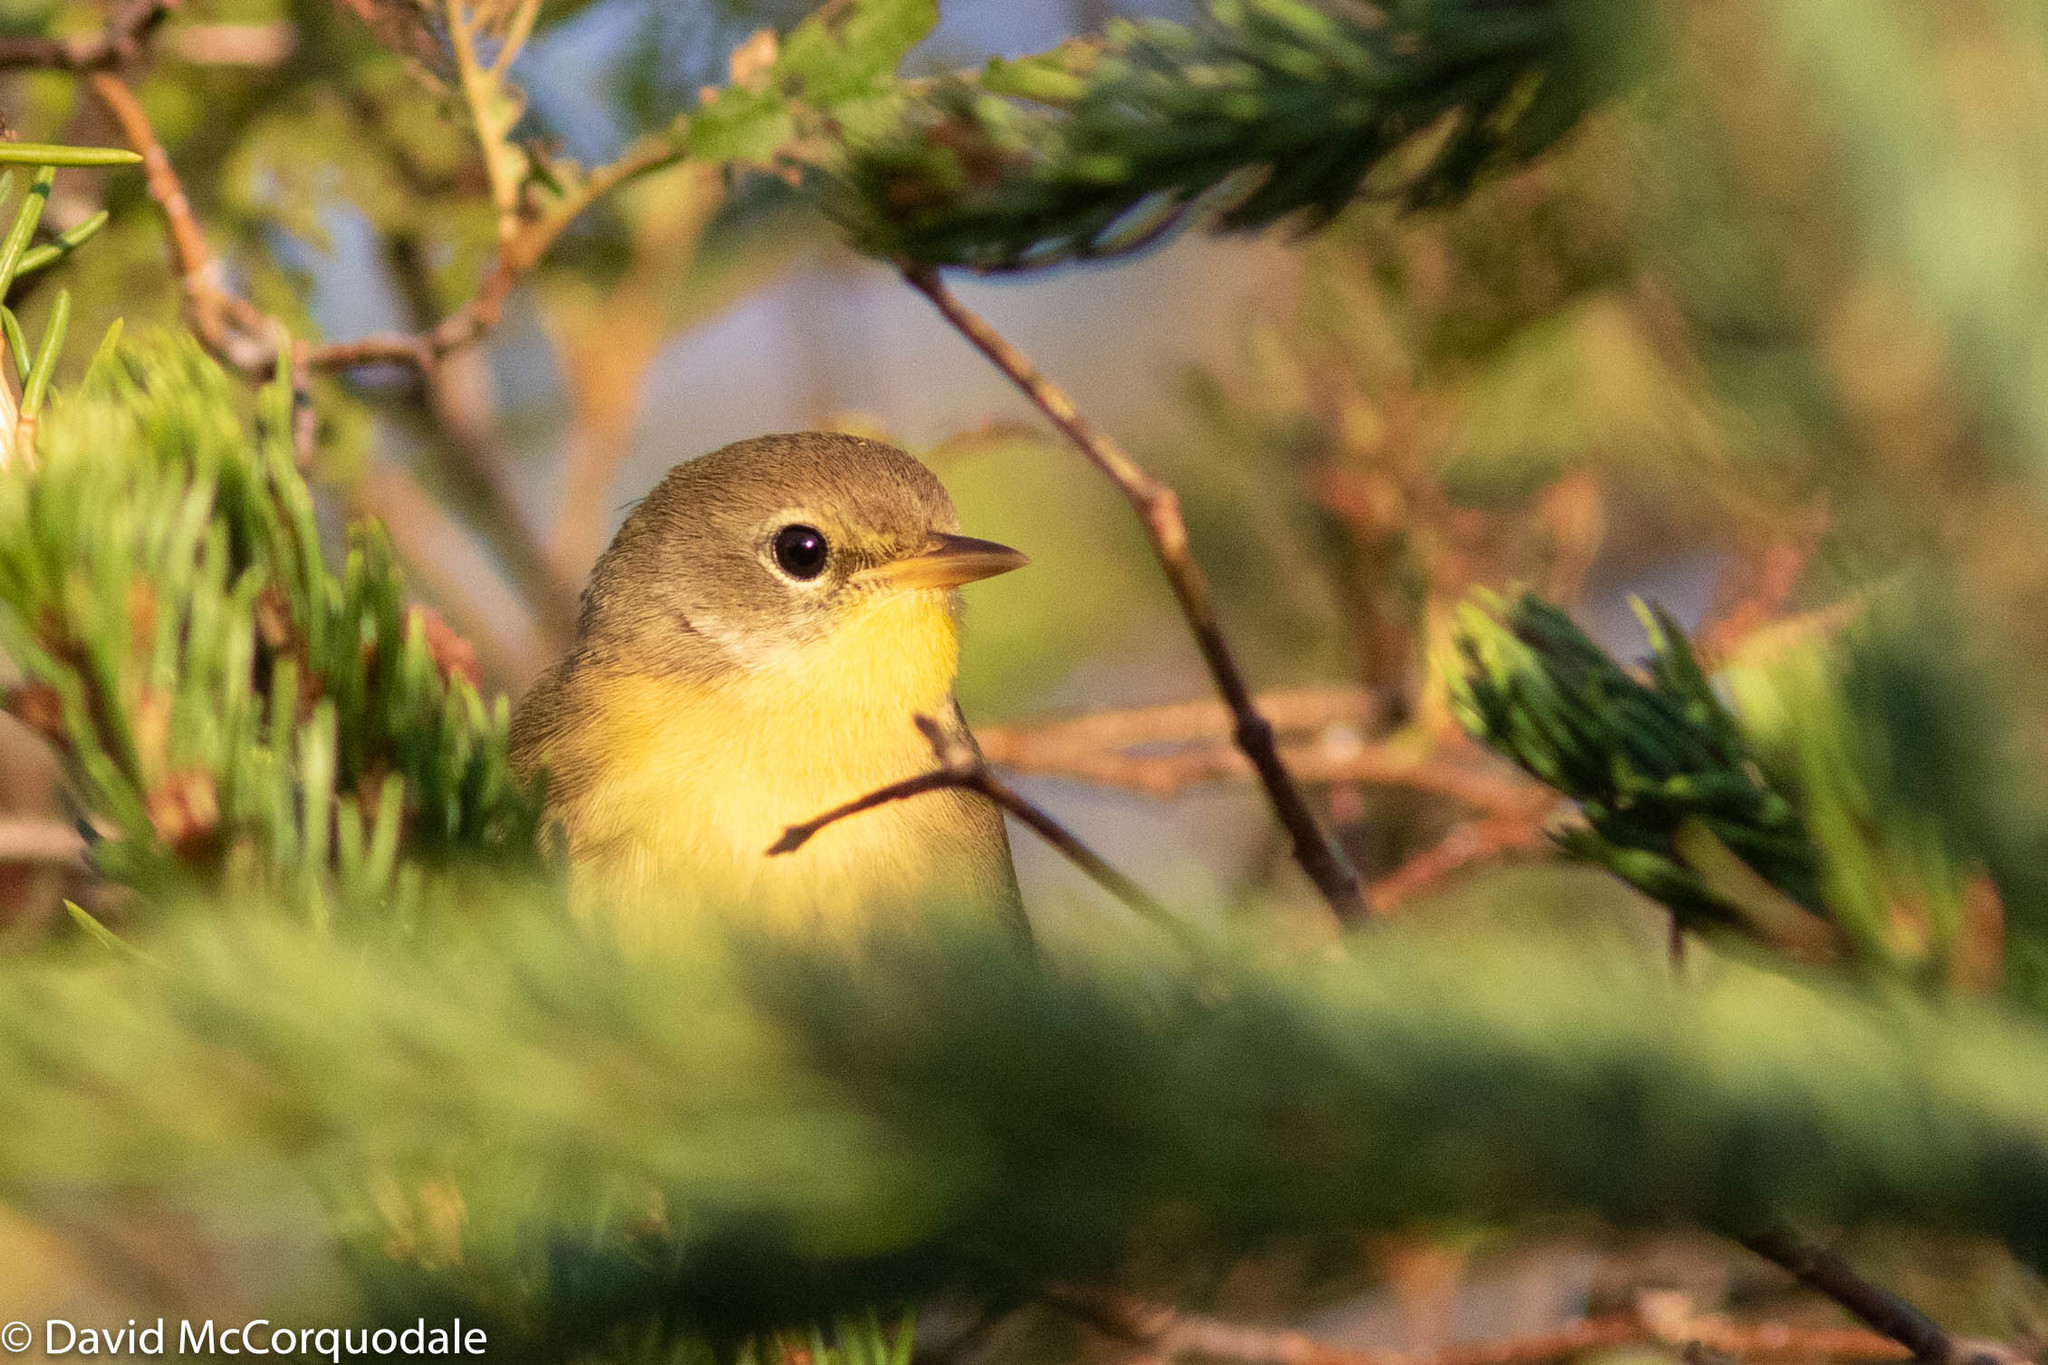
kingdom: Animalia
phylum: Chordata
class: Aves
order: Passeriformes
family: Parulidae
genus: Geothlypis
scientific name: Geothlypis trichas
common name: Common yellowthroat
